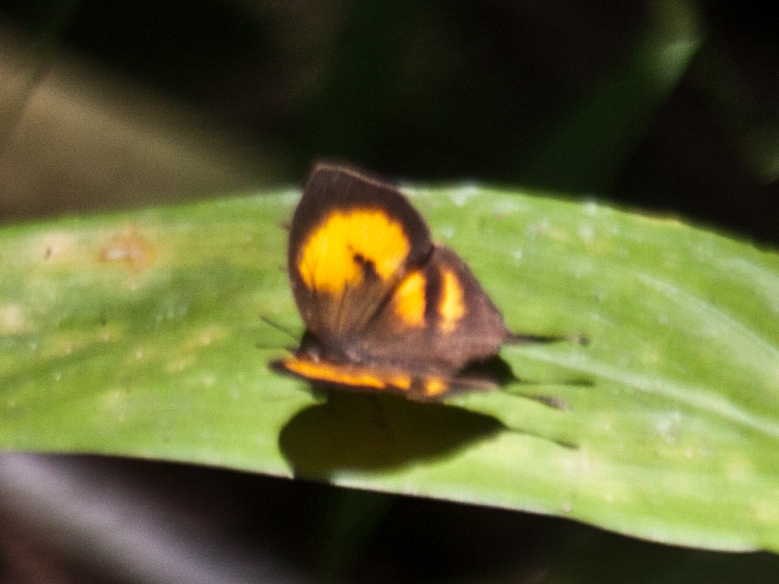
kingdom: Animalia
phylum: Arthropoda
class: Insecta
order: Lepidoptera
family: Lycaenidae
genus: Yasoda
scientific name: Yasoda tripunctata
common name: Branded yamfly
